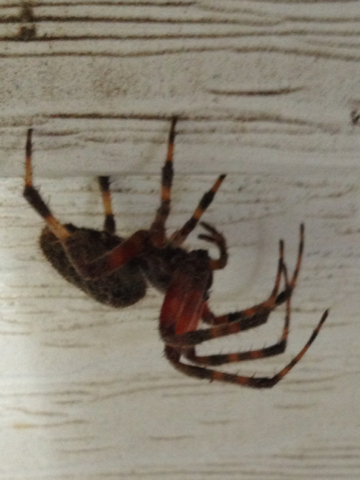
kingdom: Animalia
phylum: Arthropoda
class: Arachnida
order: Araneae
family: Araneidae
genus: Neoscona
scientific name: Neoscona crucifera
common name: Spotted orbweaver
